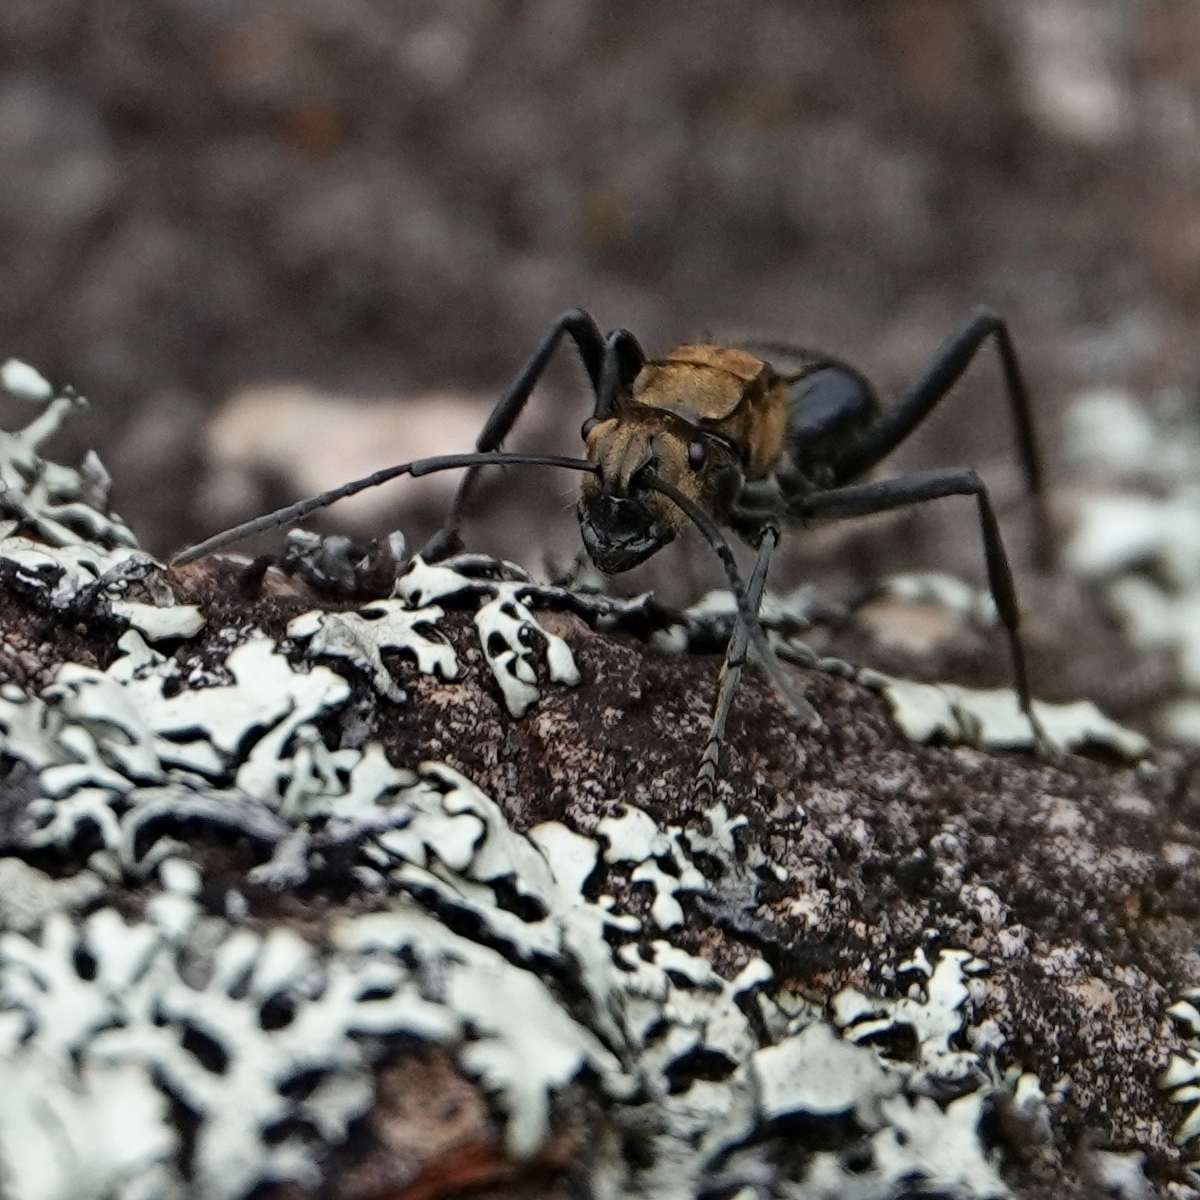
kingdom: Animalia
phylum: Arthropoda
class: Insecta
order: Hymenoptera
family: Formicidae
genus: Polyrhachis
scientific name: Polyrhachis semiaurata
